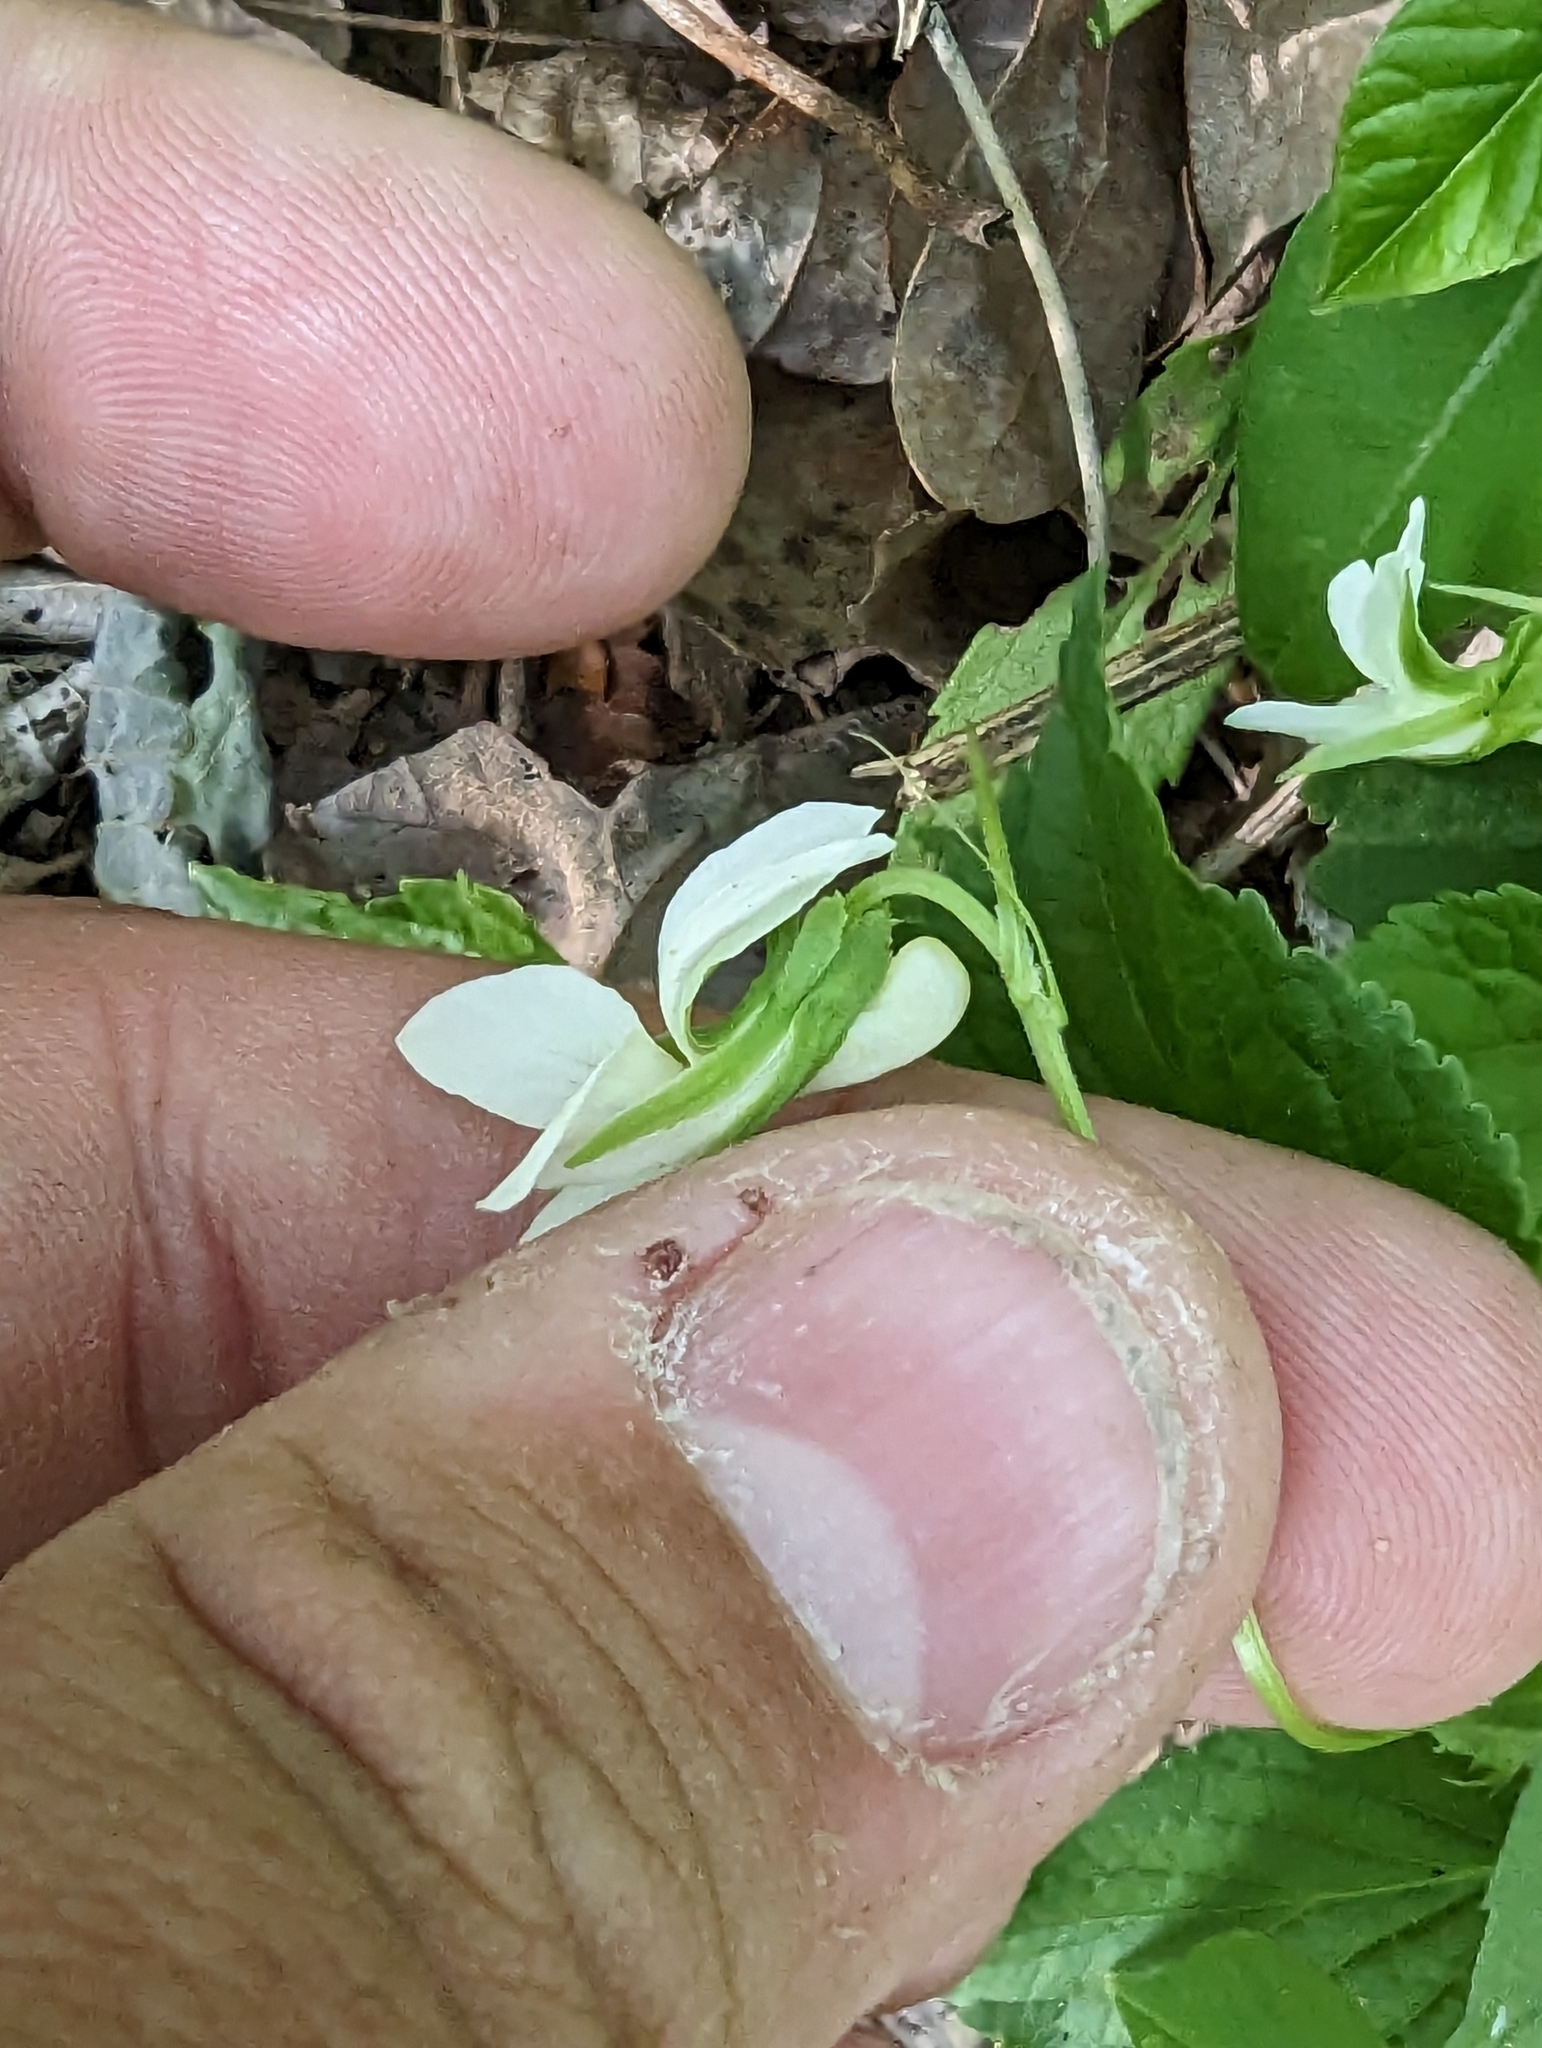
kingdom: Plantae
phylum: Tracheophyta
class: Magnoliopsida
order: Malpighiales
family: Violaceae
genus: Viola
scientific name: Viola striata
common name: Cream violet
